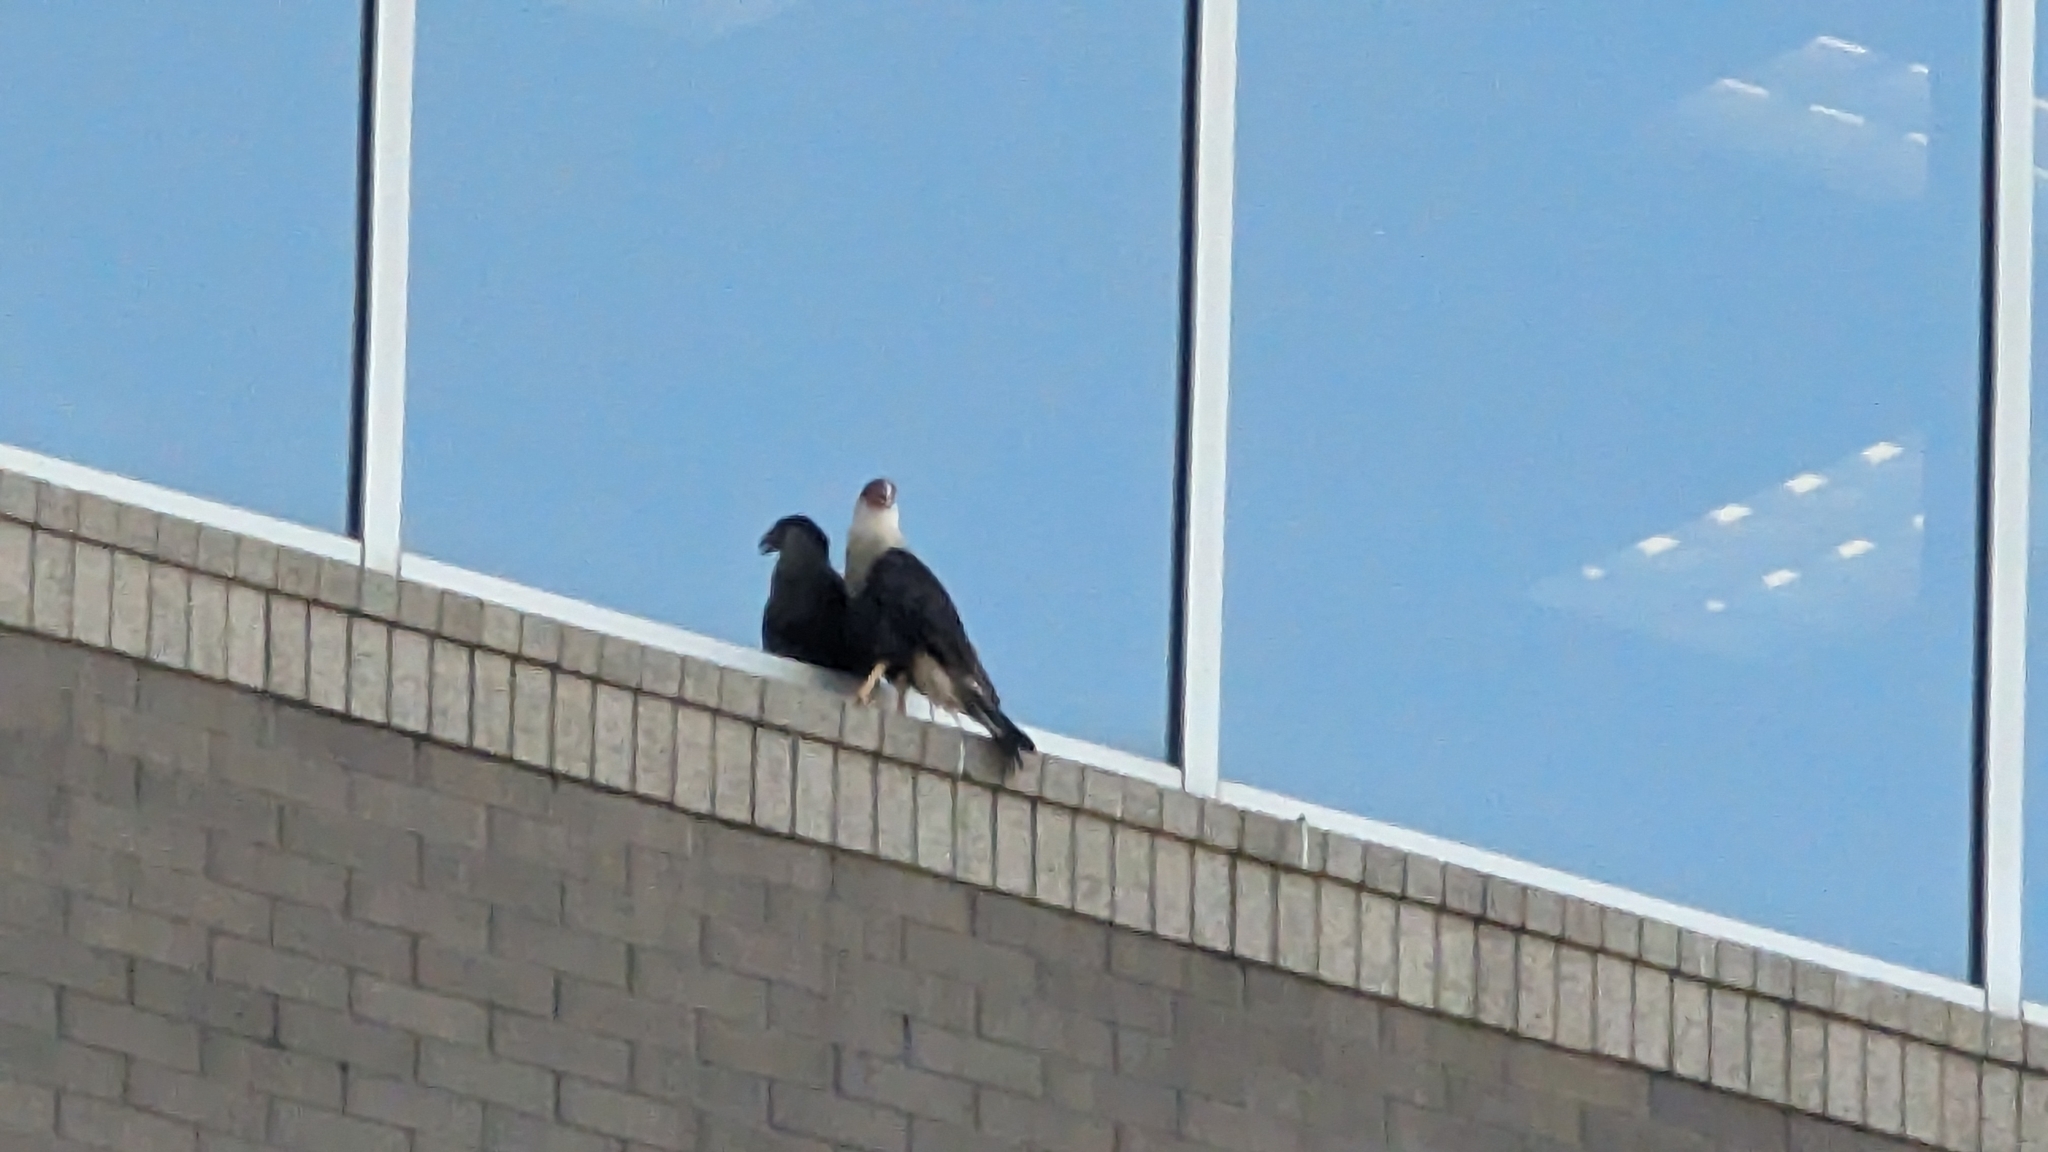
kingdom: Animalia
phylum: Chordata
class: Aves
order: Falconiformes
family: Falconidae
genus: Caracara
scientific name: Caracara plancus
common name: Southern caracara
